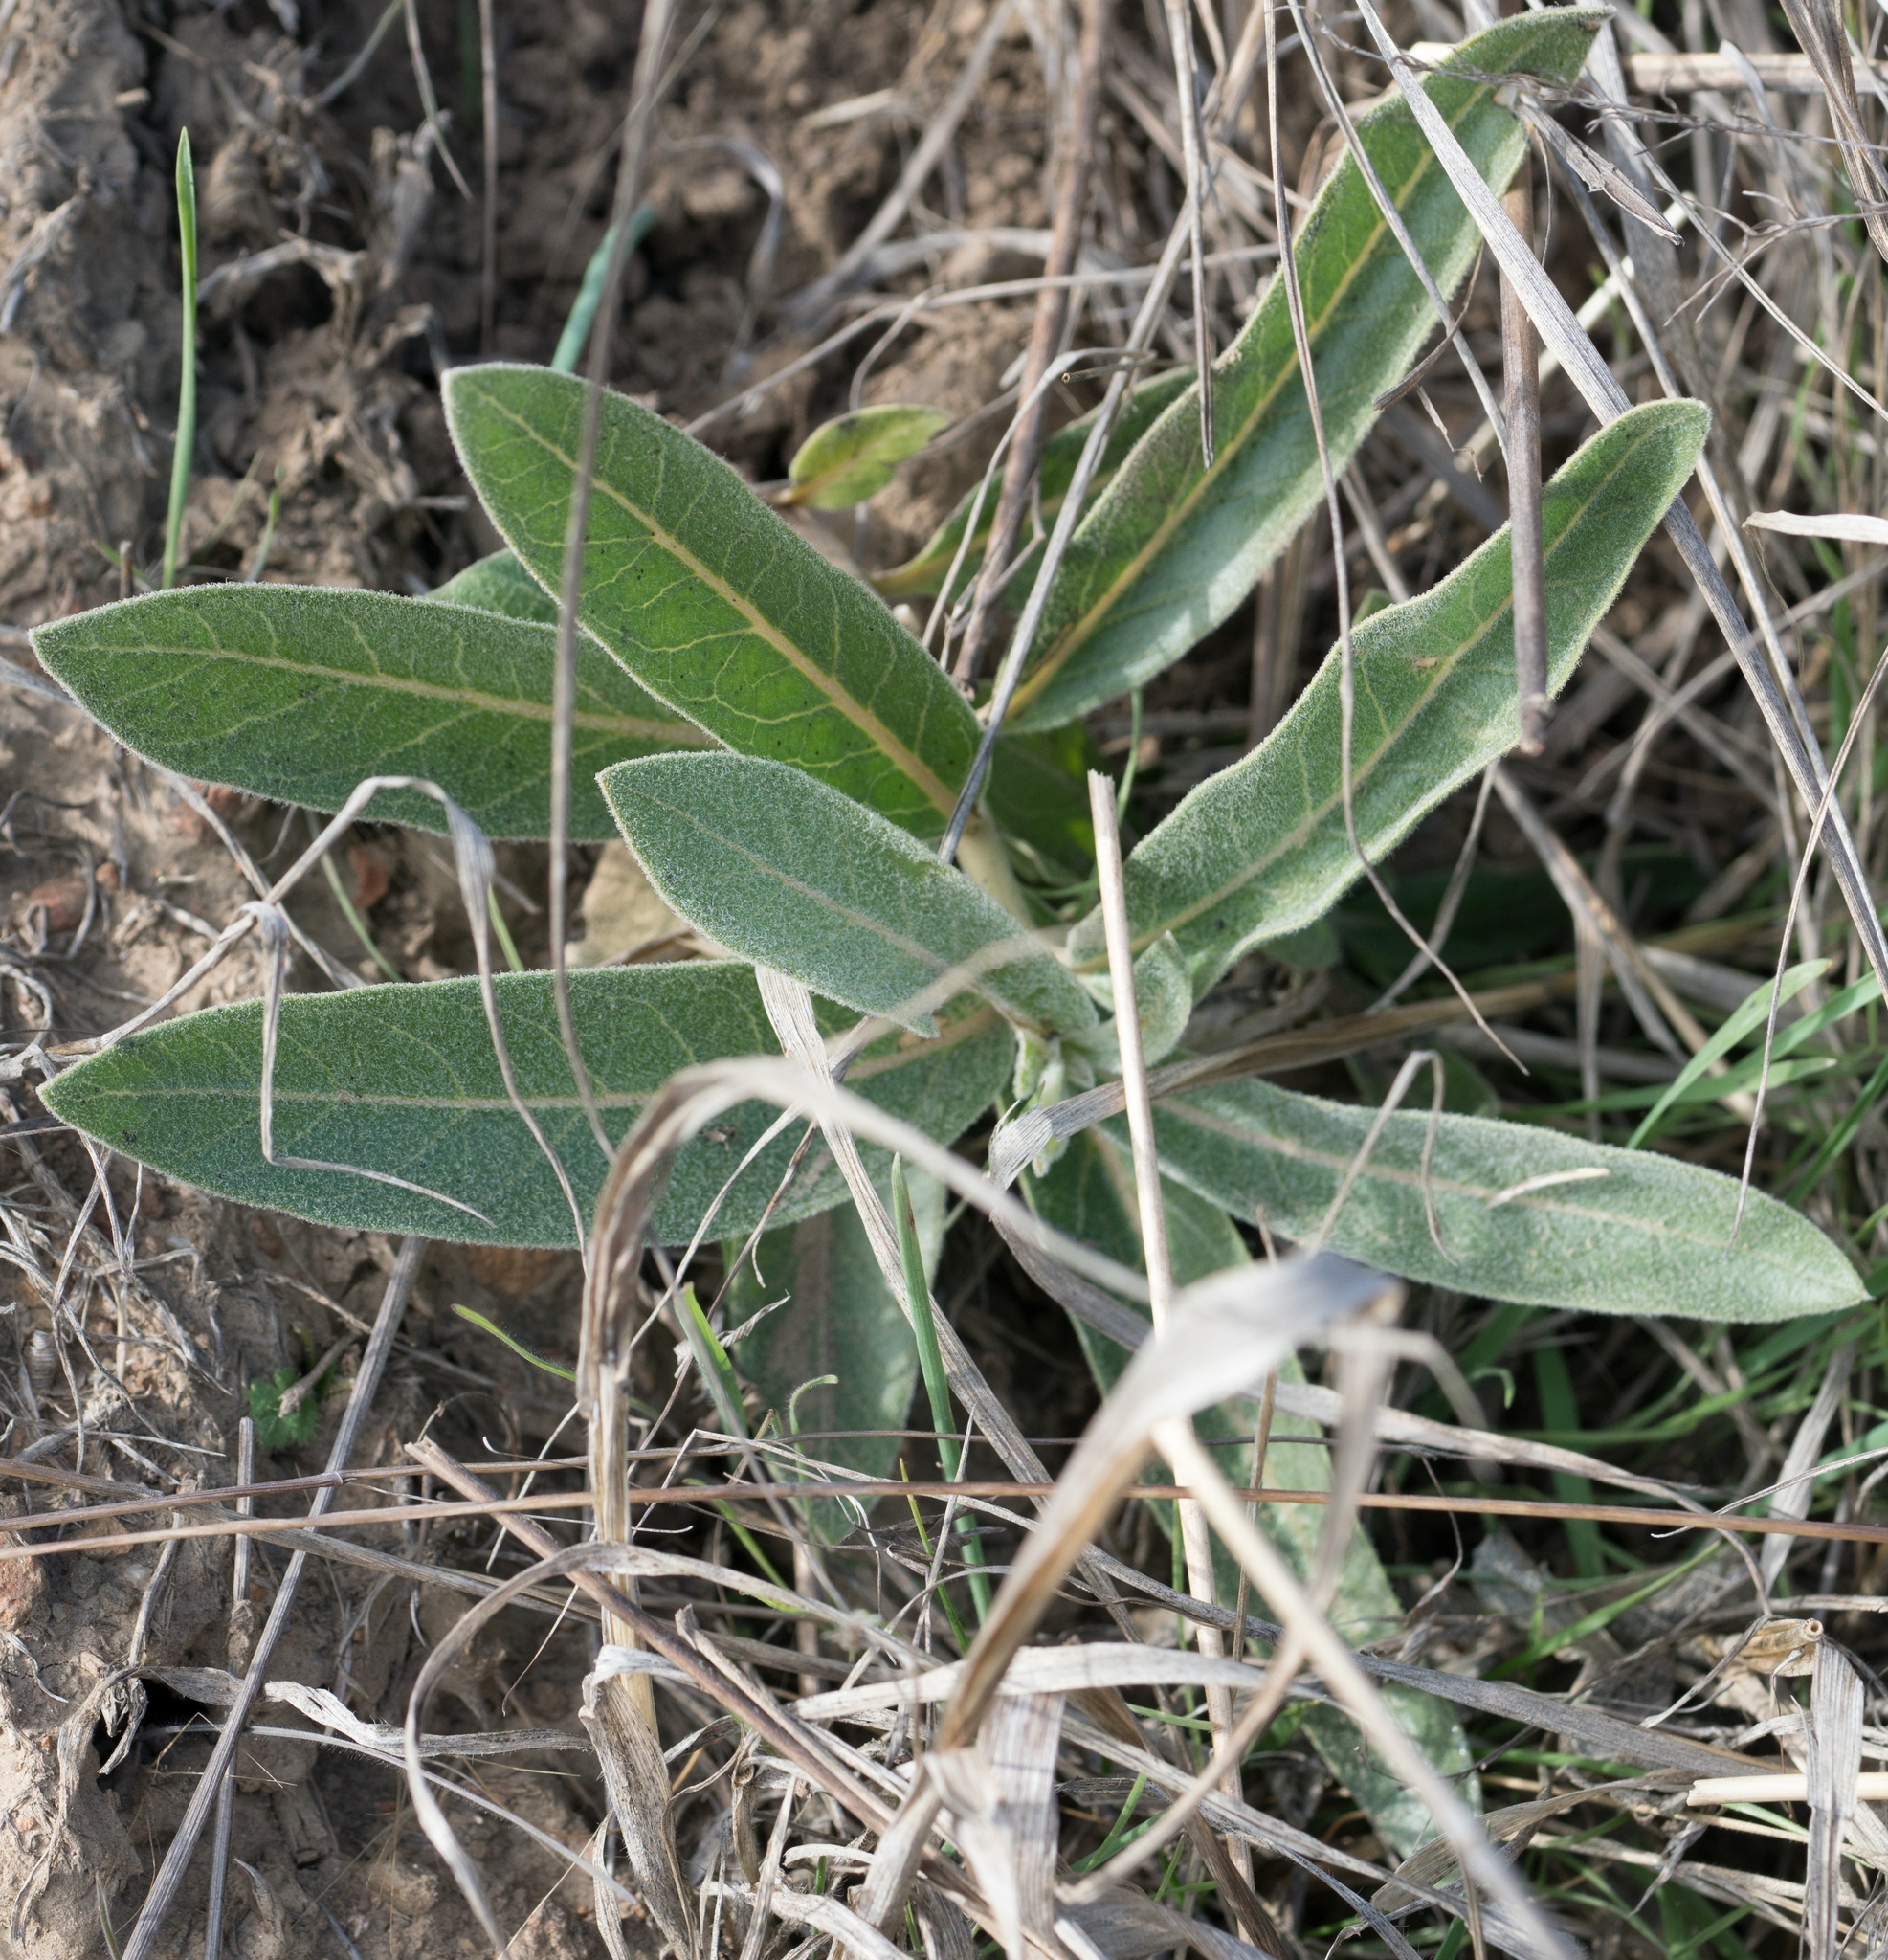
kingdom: Plantae
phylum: Tracheophyta
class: Magnoliopsida
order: Gentianales
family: Apocynaceae
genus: Asclepias
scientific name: Asclepias eriocarpa
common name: Indian milkweed
